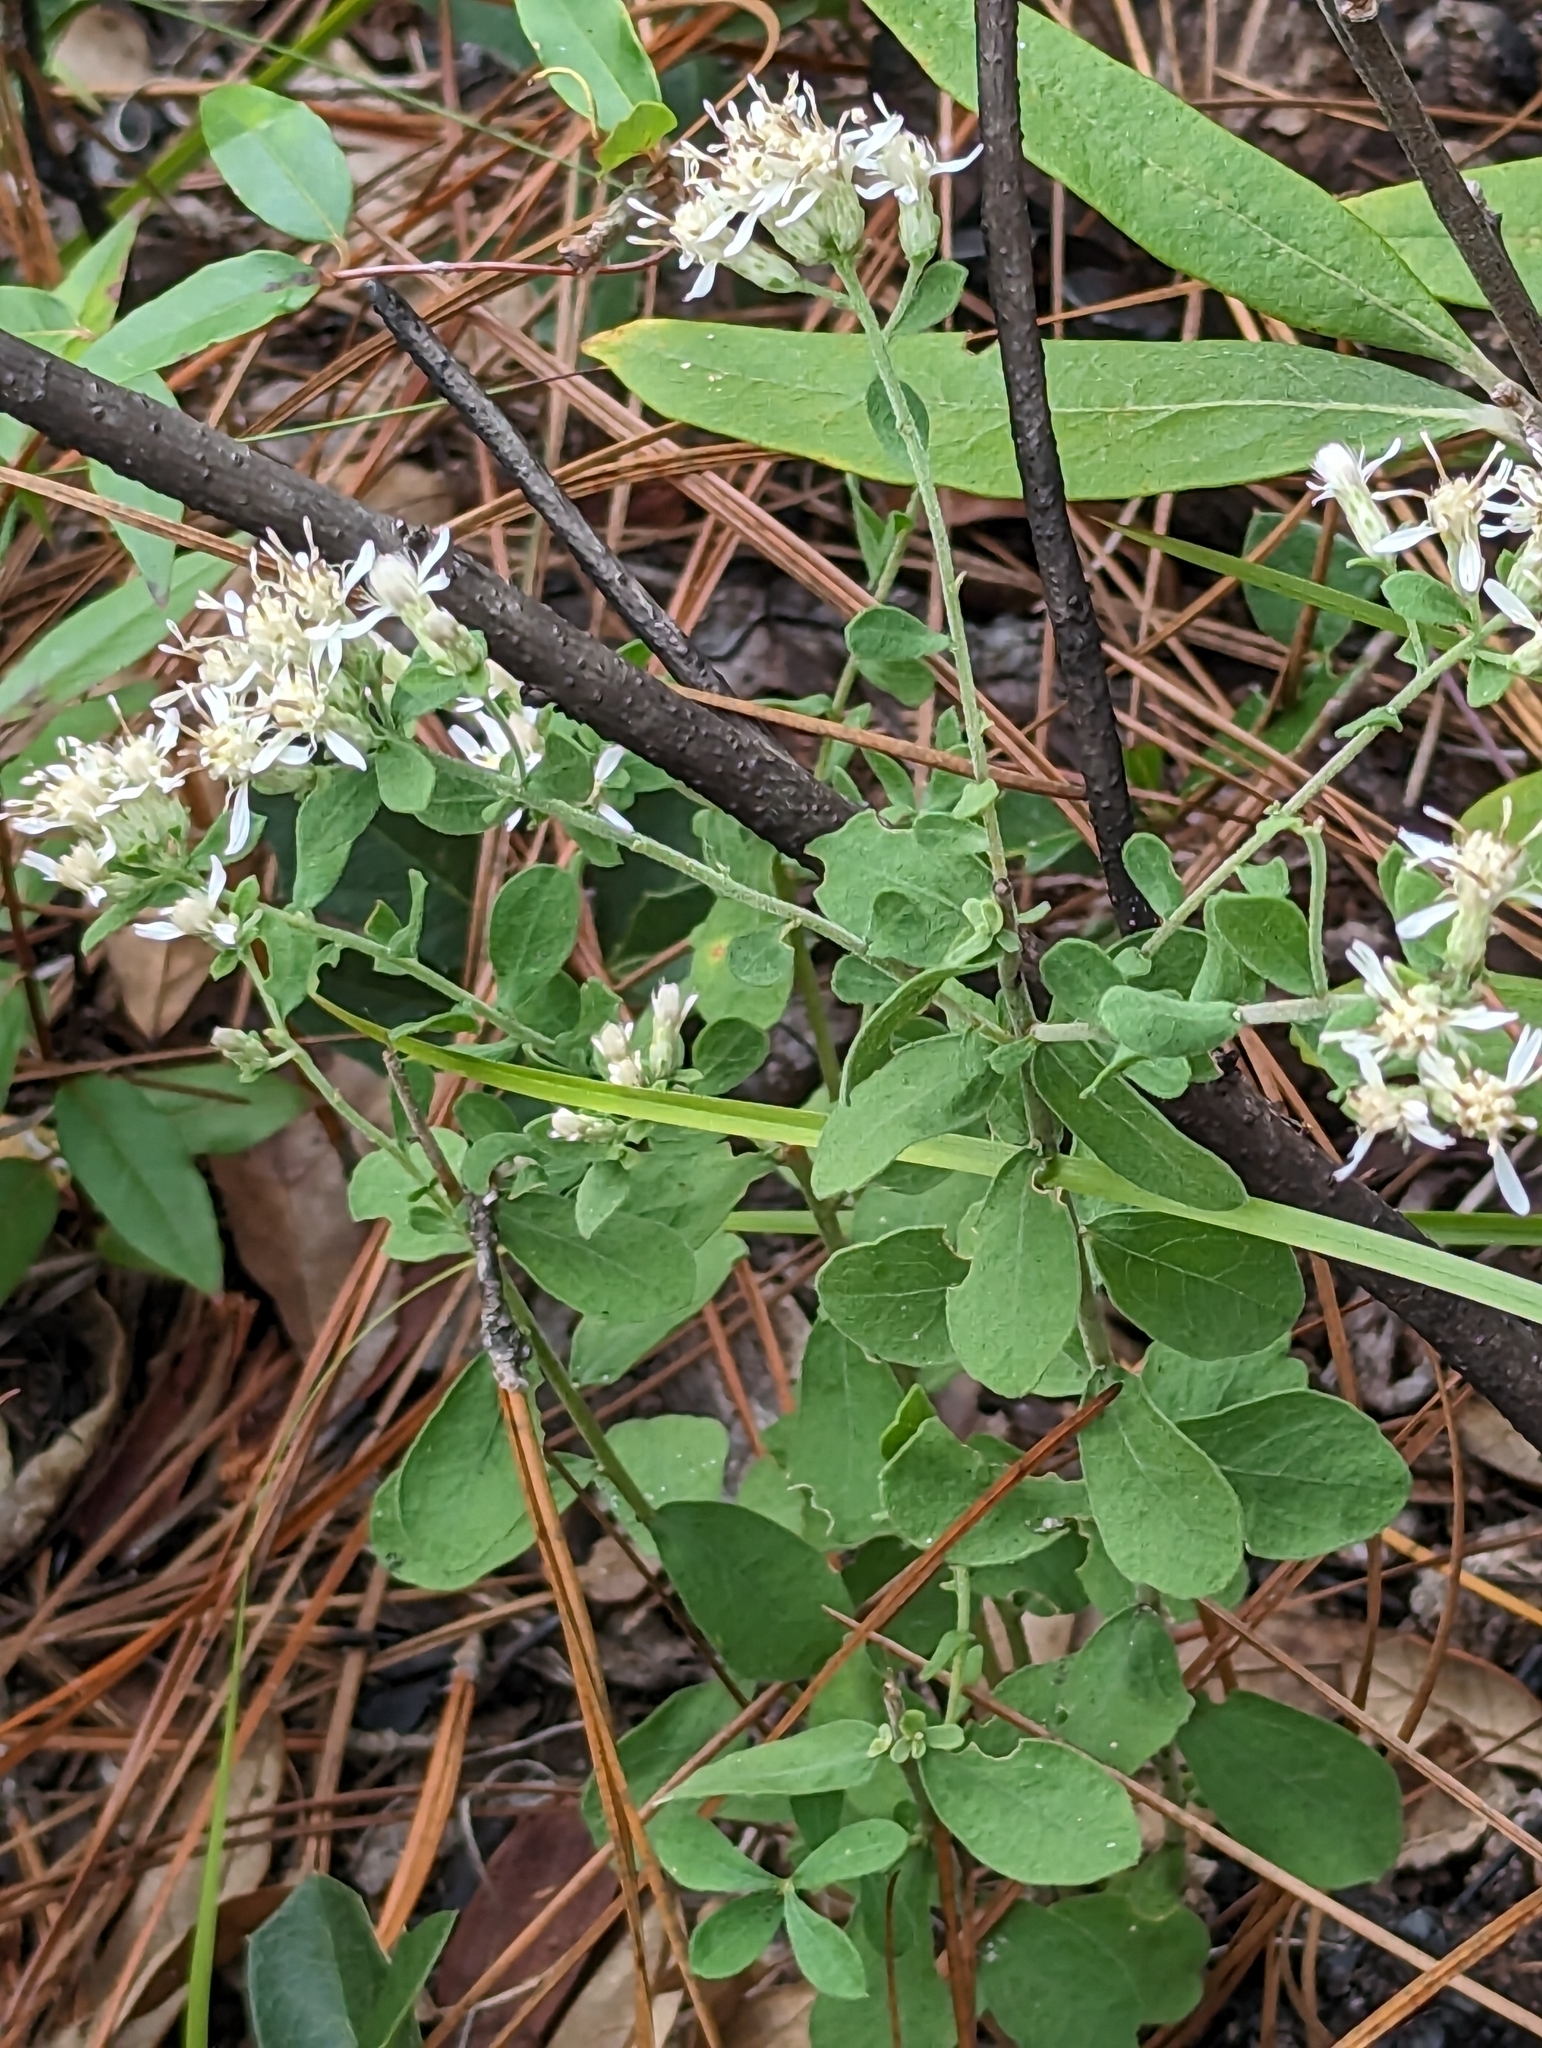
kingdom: Plantae
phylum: Tracheophyta
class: Magnoliopsida
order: Asterales
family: Asteraceae
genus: Sericocarpus
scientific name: Sericocarpus tortifolius
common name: Dixie aster
